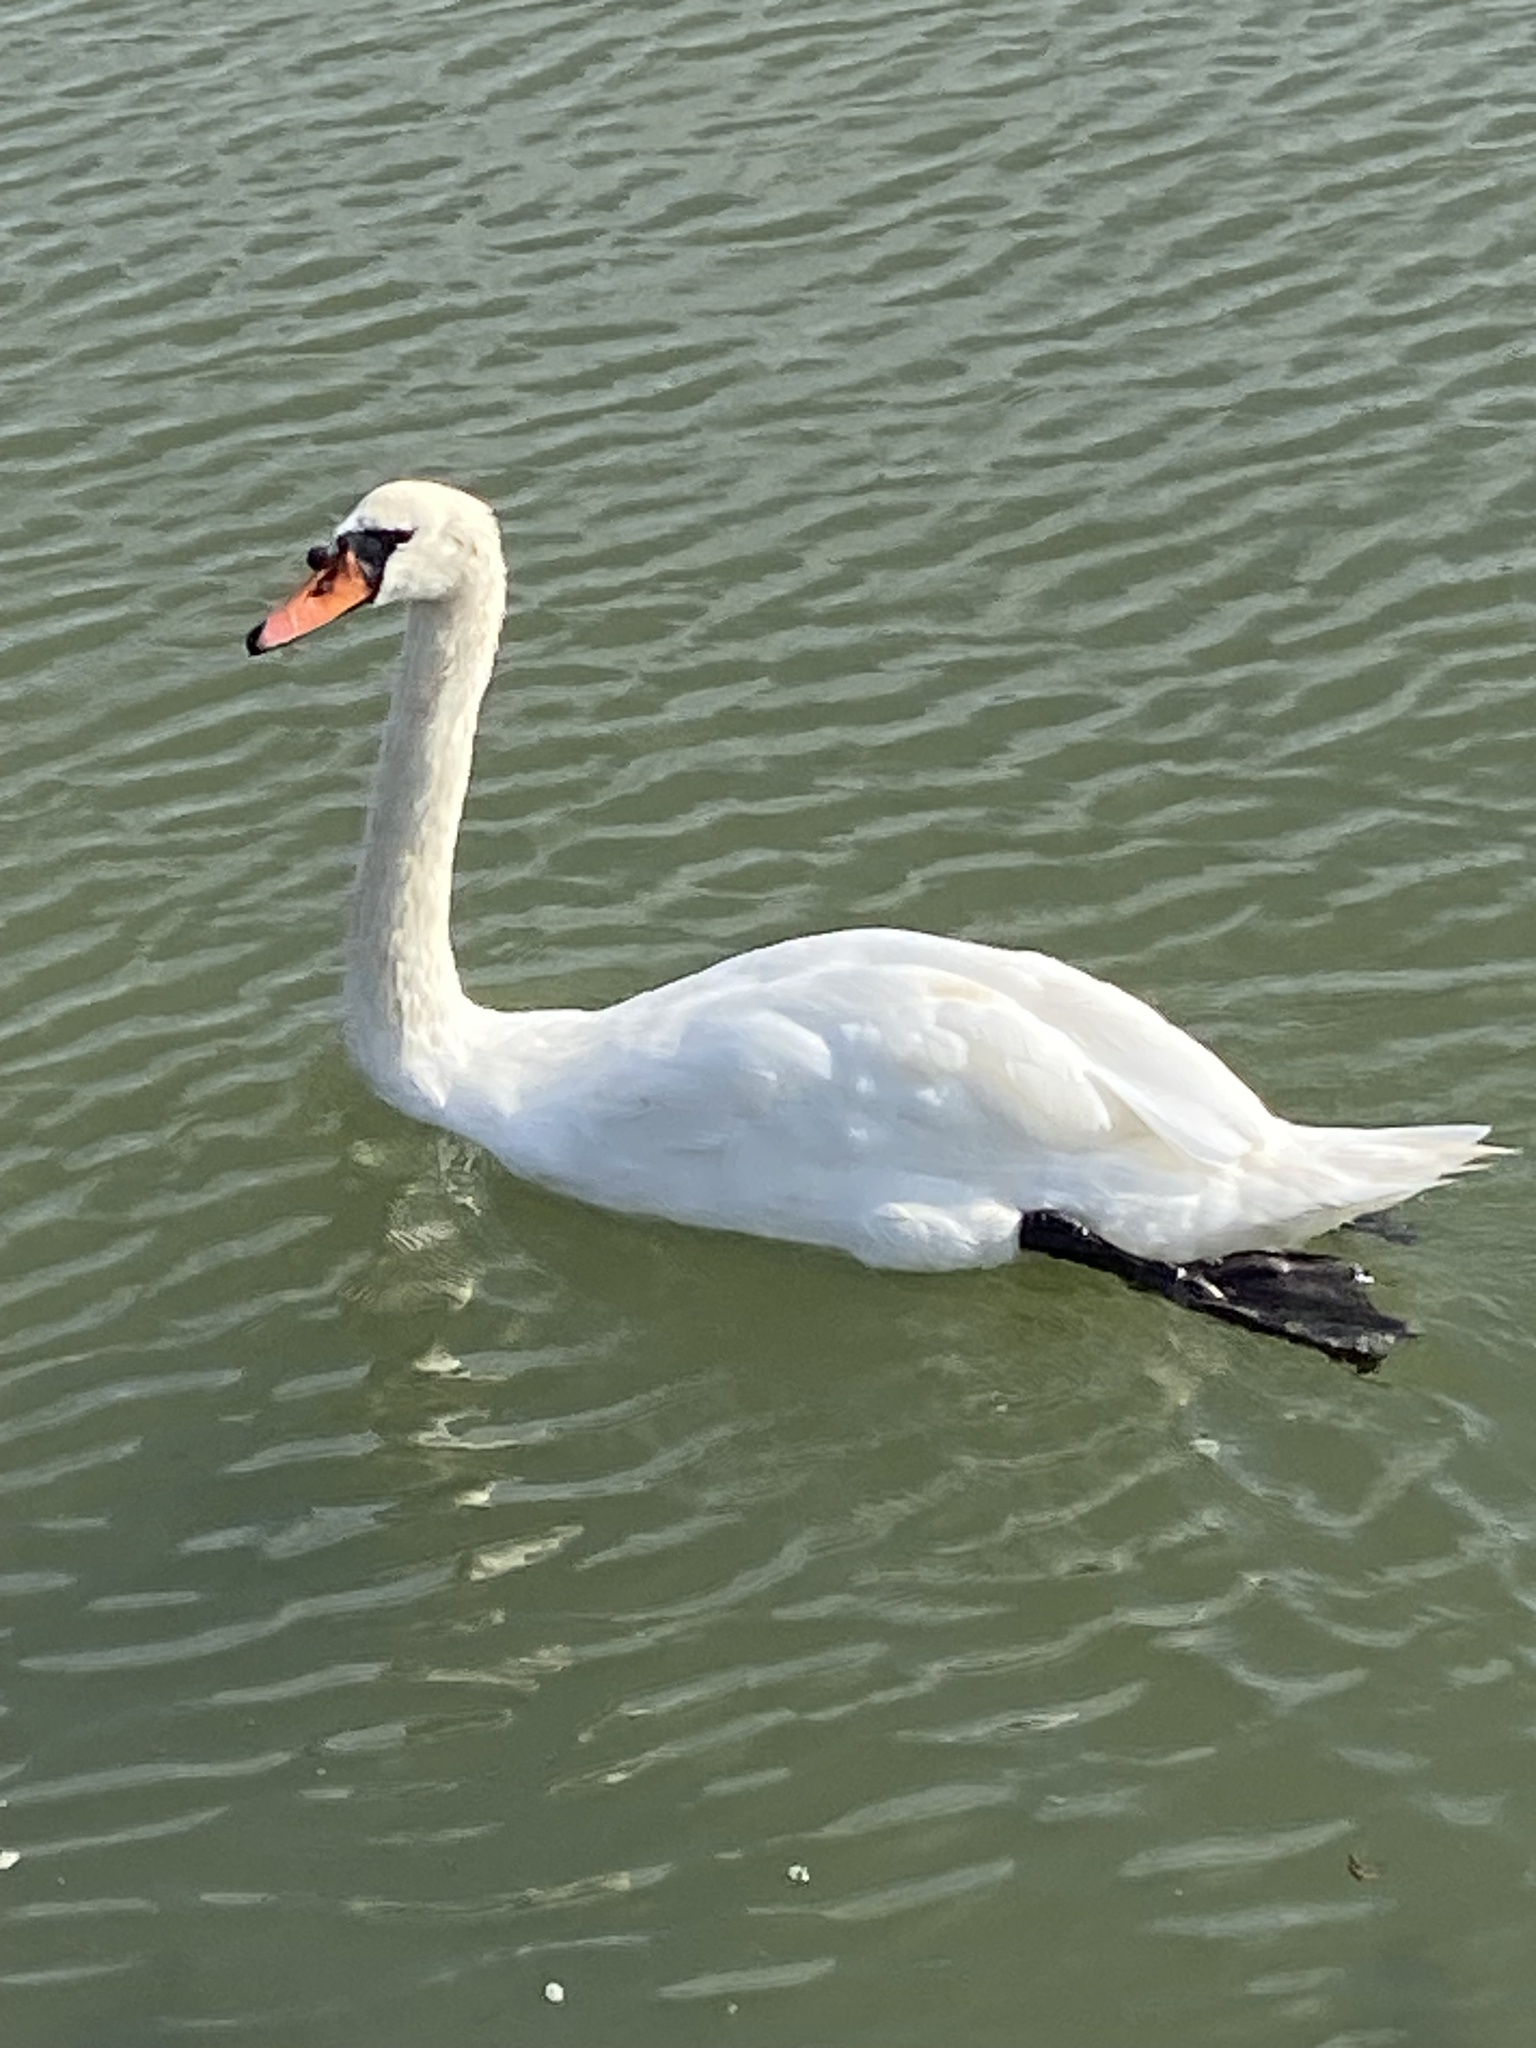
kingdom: Animalia
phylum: Chordata
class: Aves
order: Anseriformes
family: Anatidae
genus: Cygnus
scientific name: Cygnus olor
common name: Mute swan
